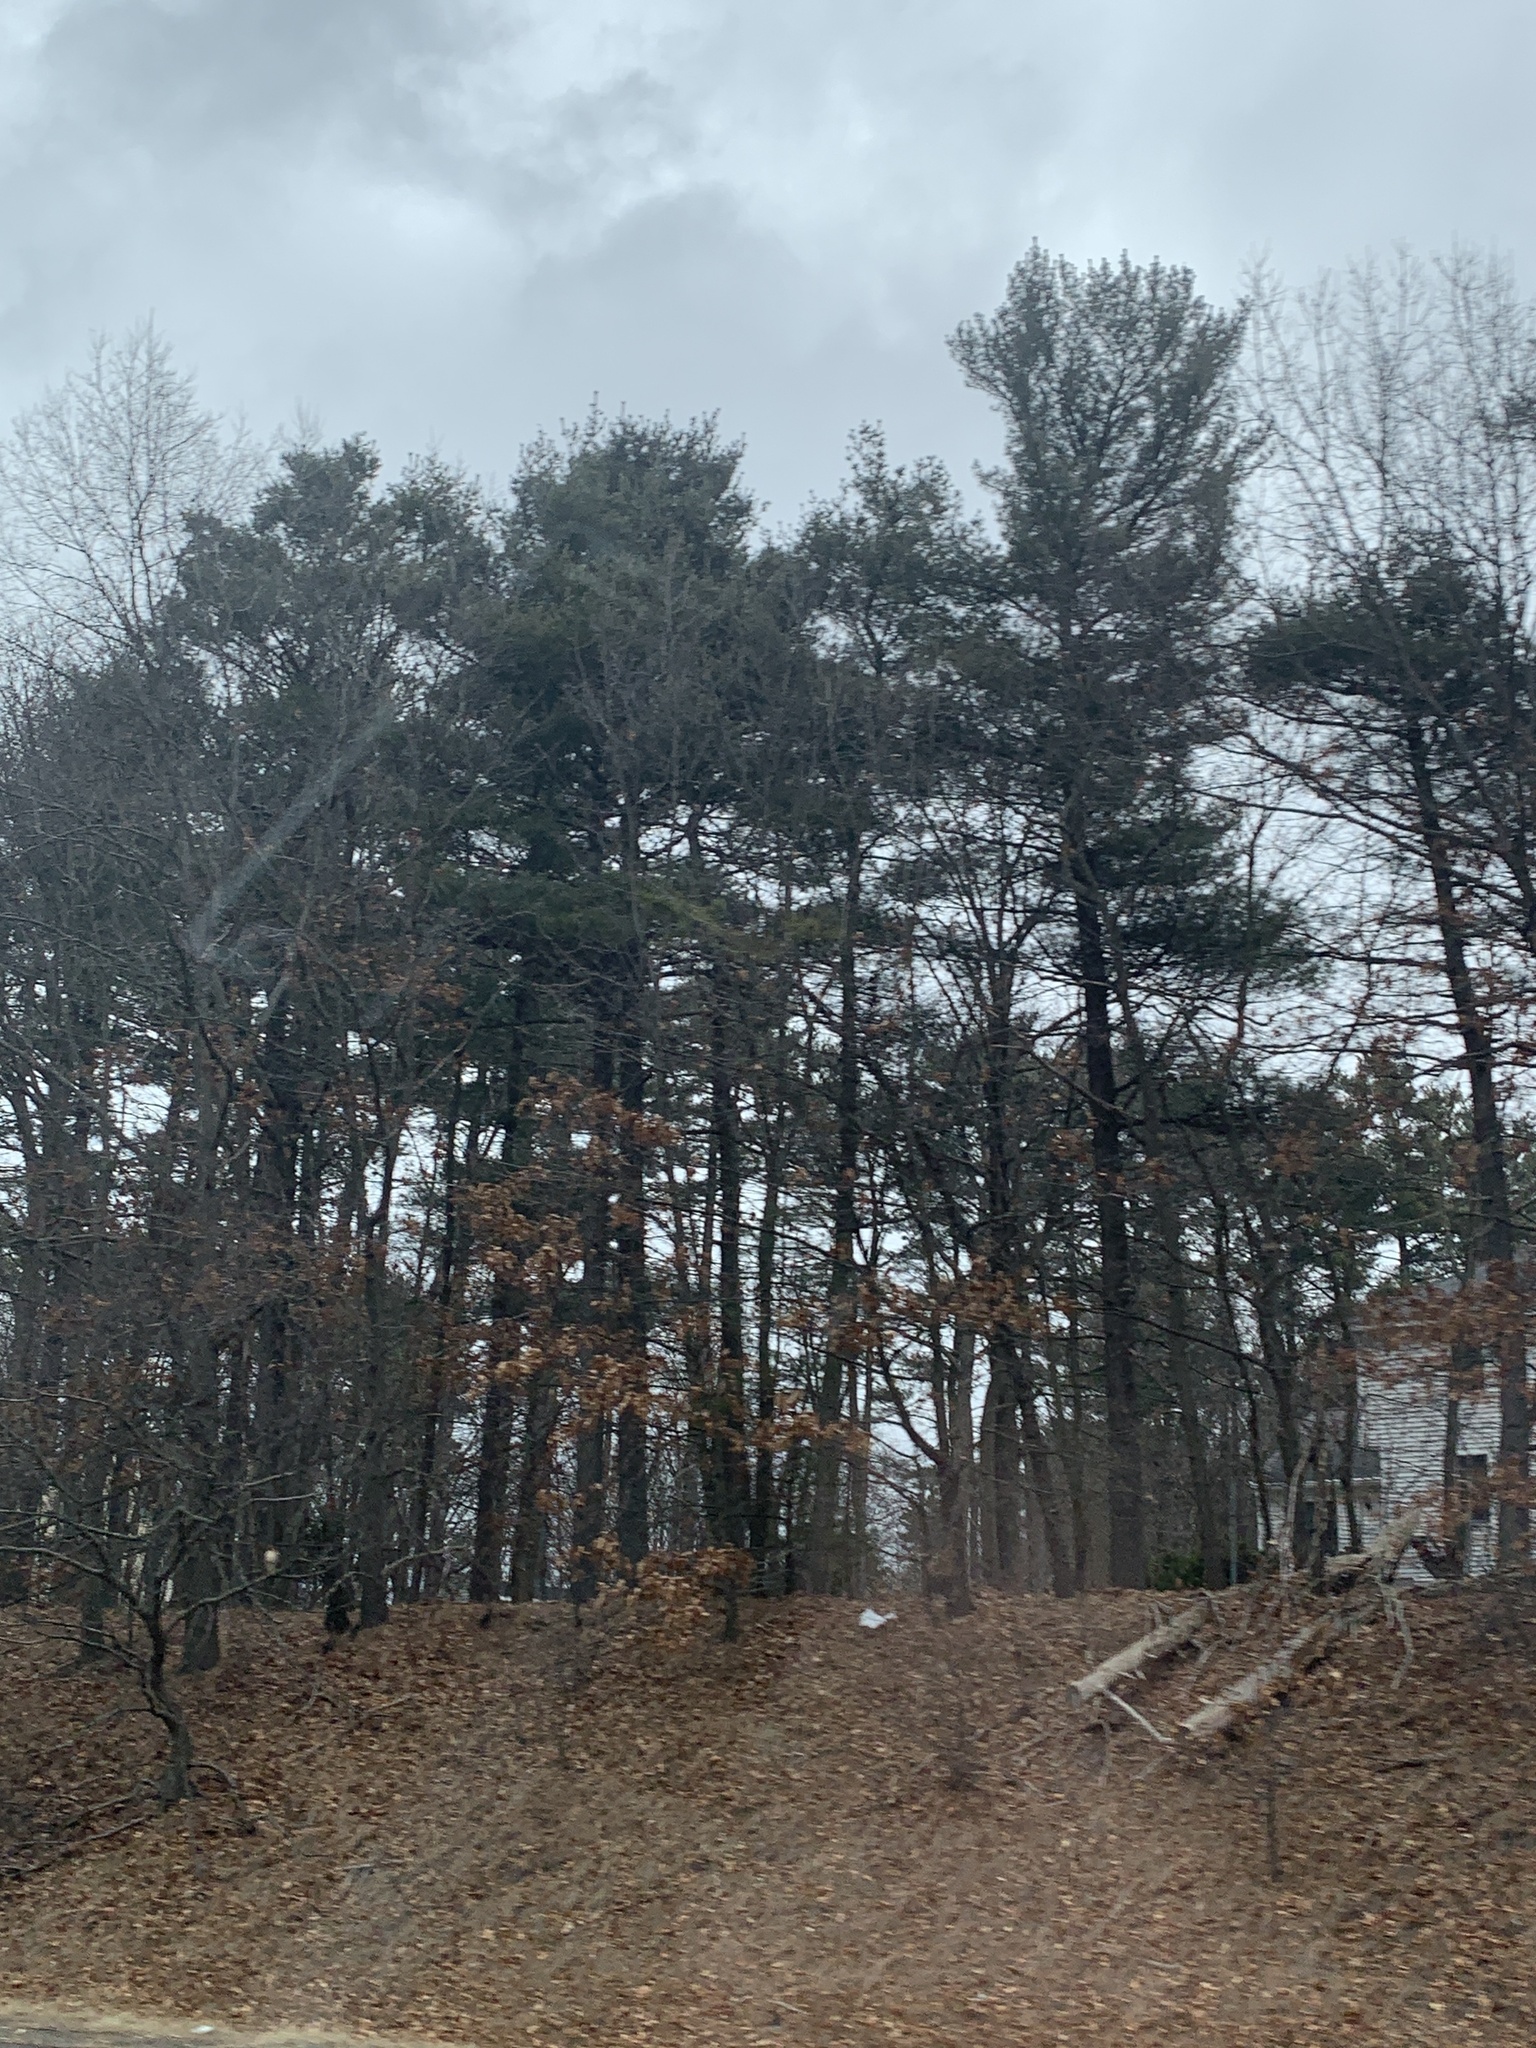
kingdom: Plantae
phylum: Tracheophyta
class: Pinopsida
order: Pinales
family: Pinaceae
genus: Pinus
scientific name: Pinus strobus
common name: Weymouth pine
